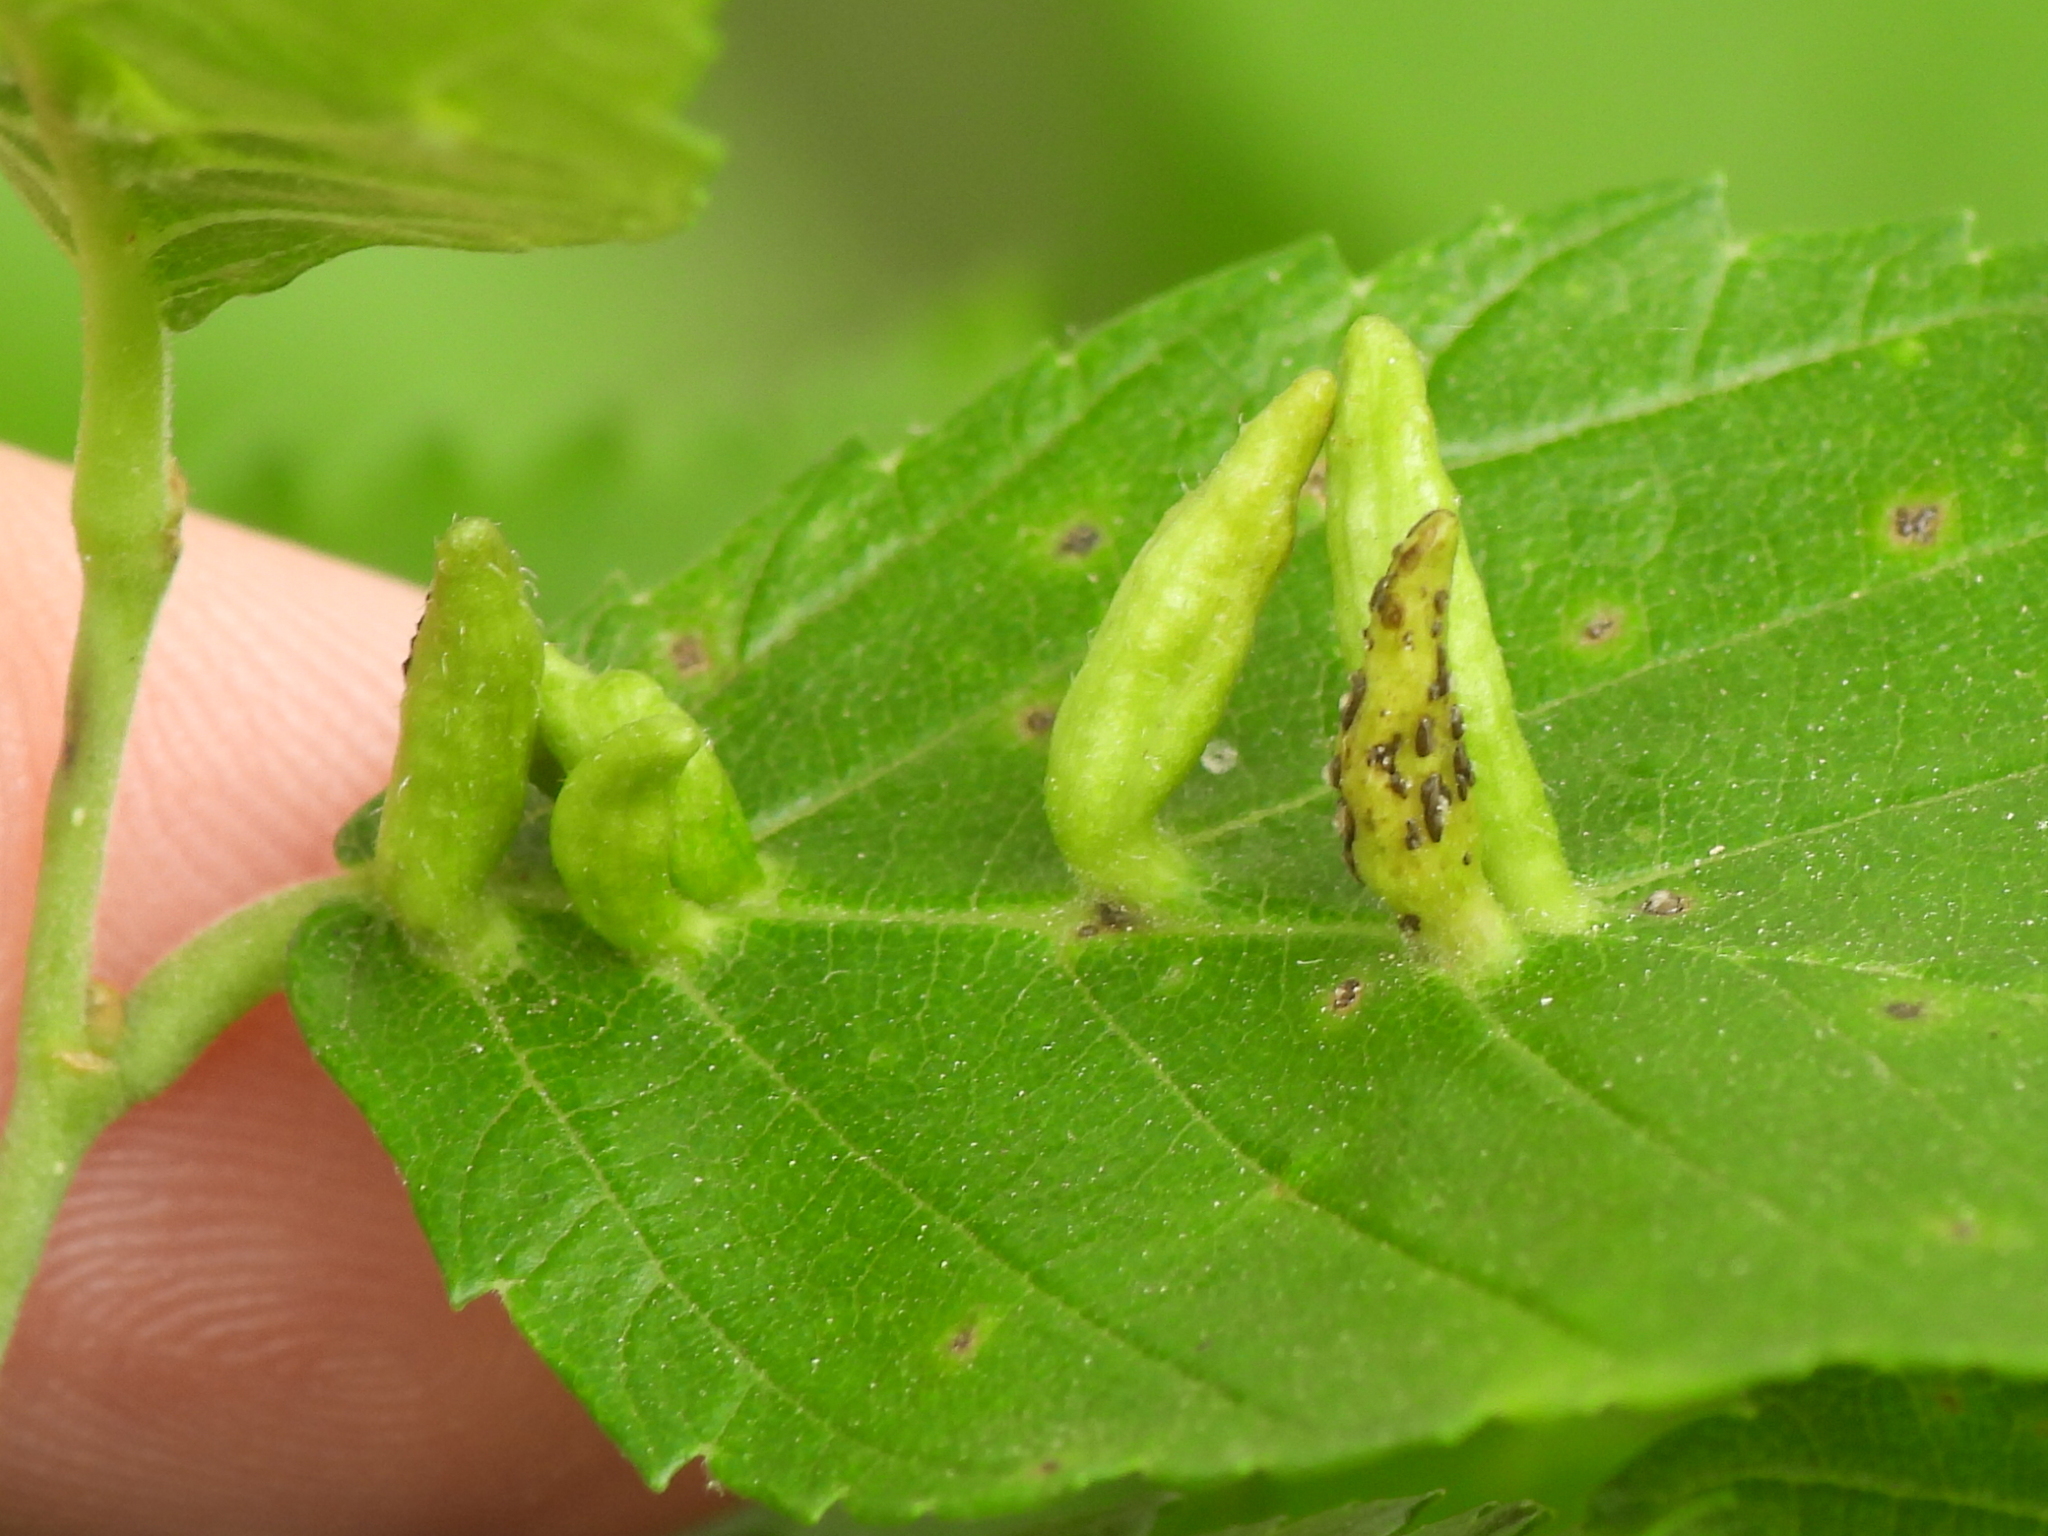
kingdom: Animalia
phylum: Arthropoda
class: Arachnida
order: Trombidiformes
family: Eriophyidae
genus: Aceria
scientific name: Aceria
